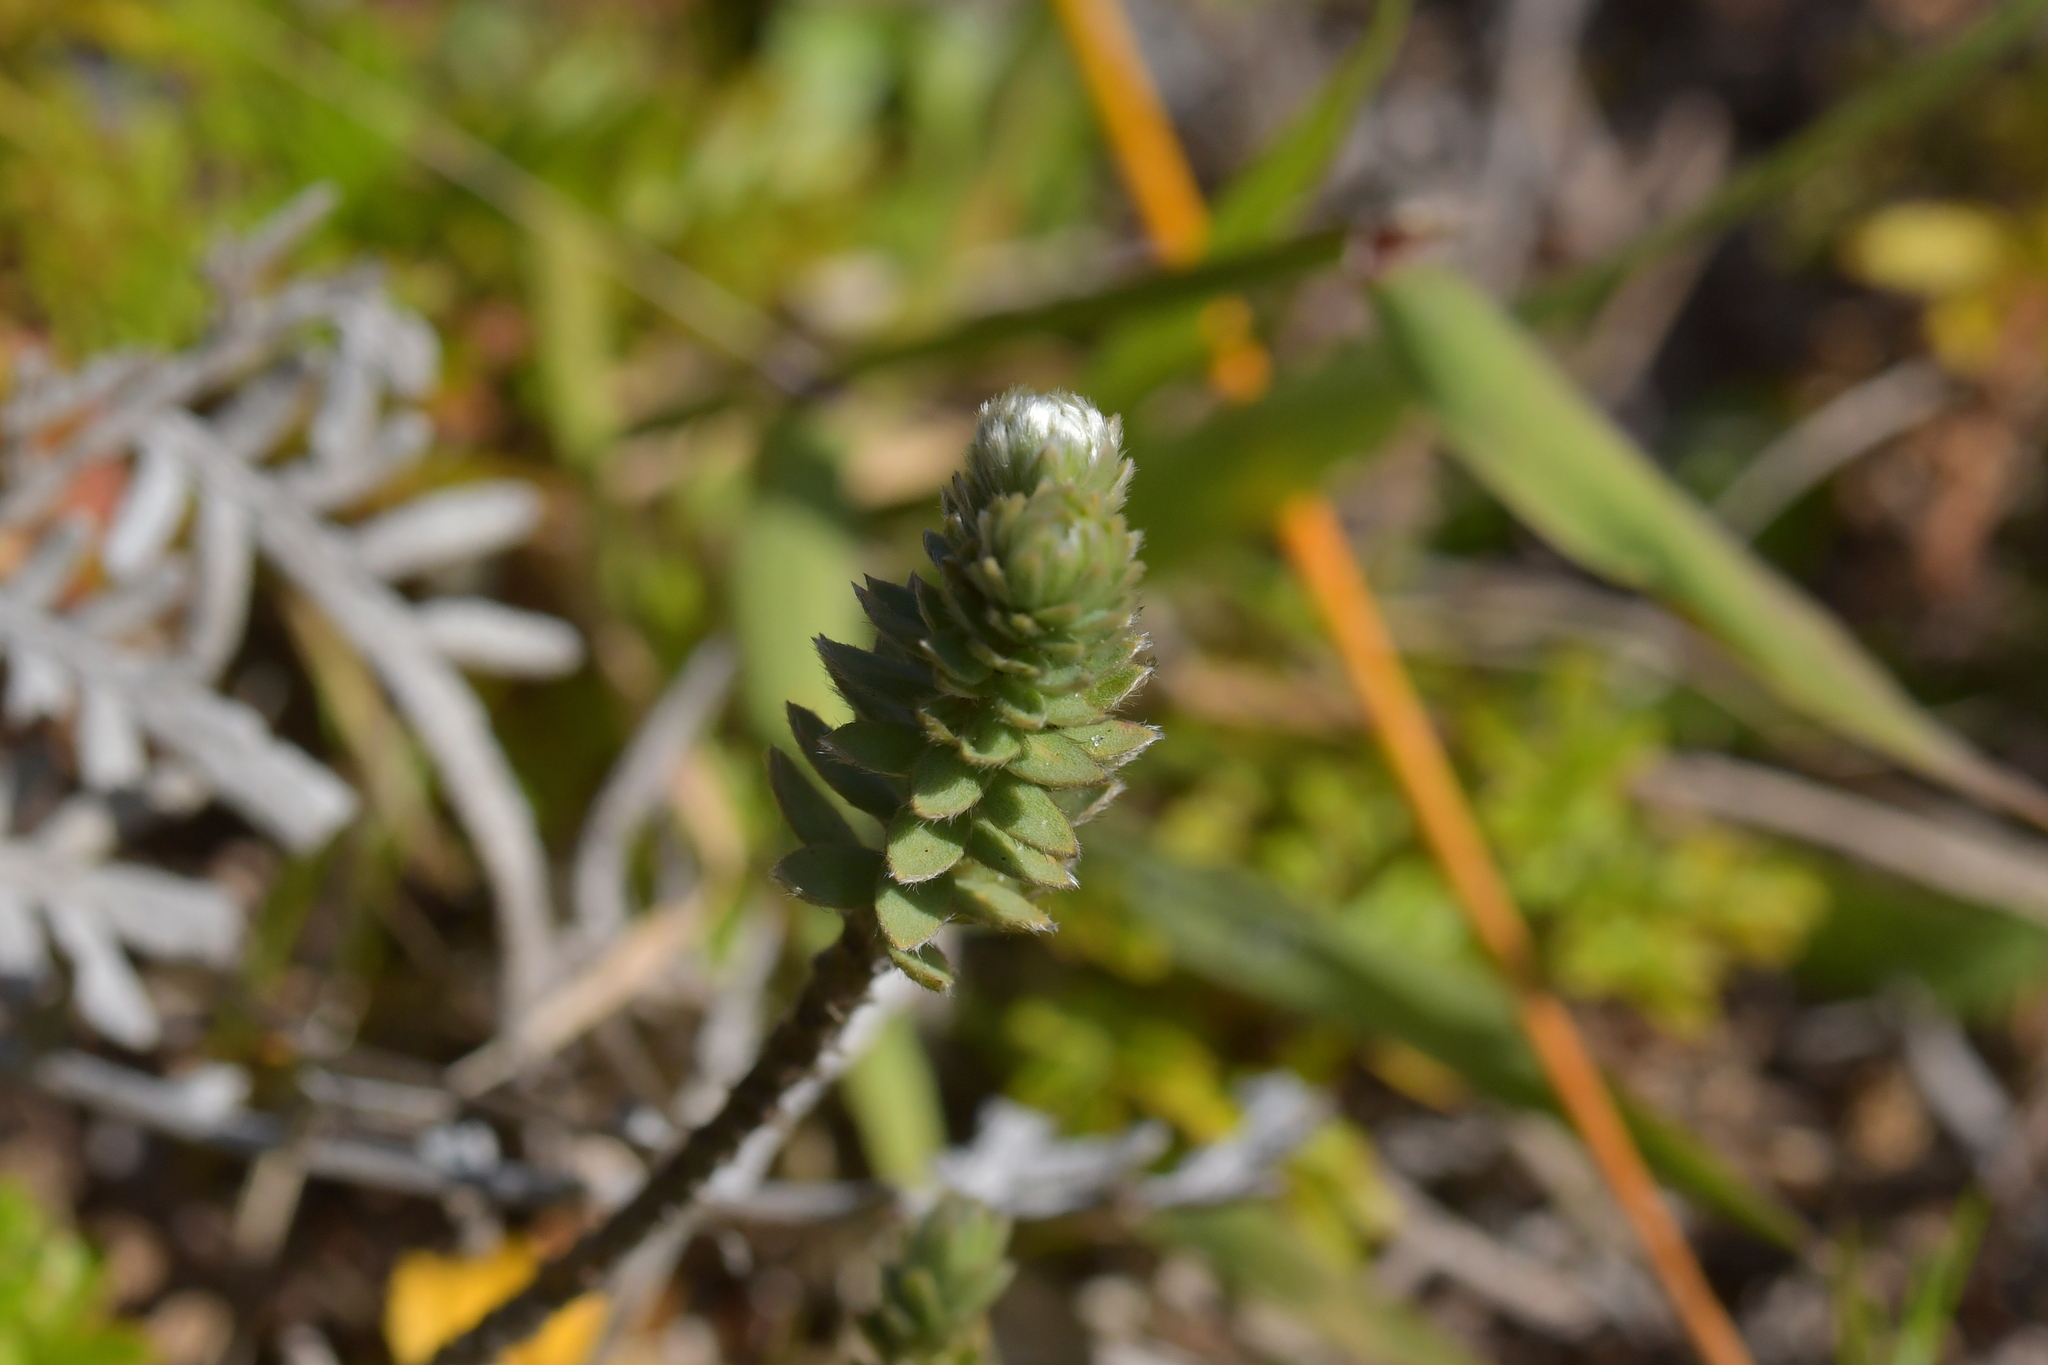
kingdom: Plantae
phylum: Tracheophyta
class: Magnoliopsida
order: Malvales
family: Thymelaeaceae
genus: Pimelea
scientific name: Pimelea villosa
